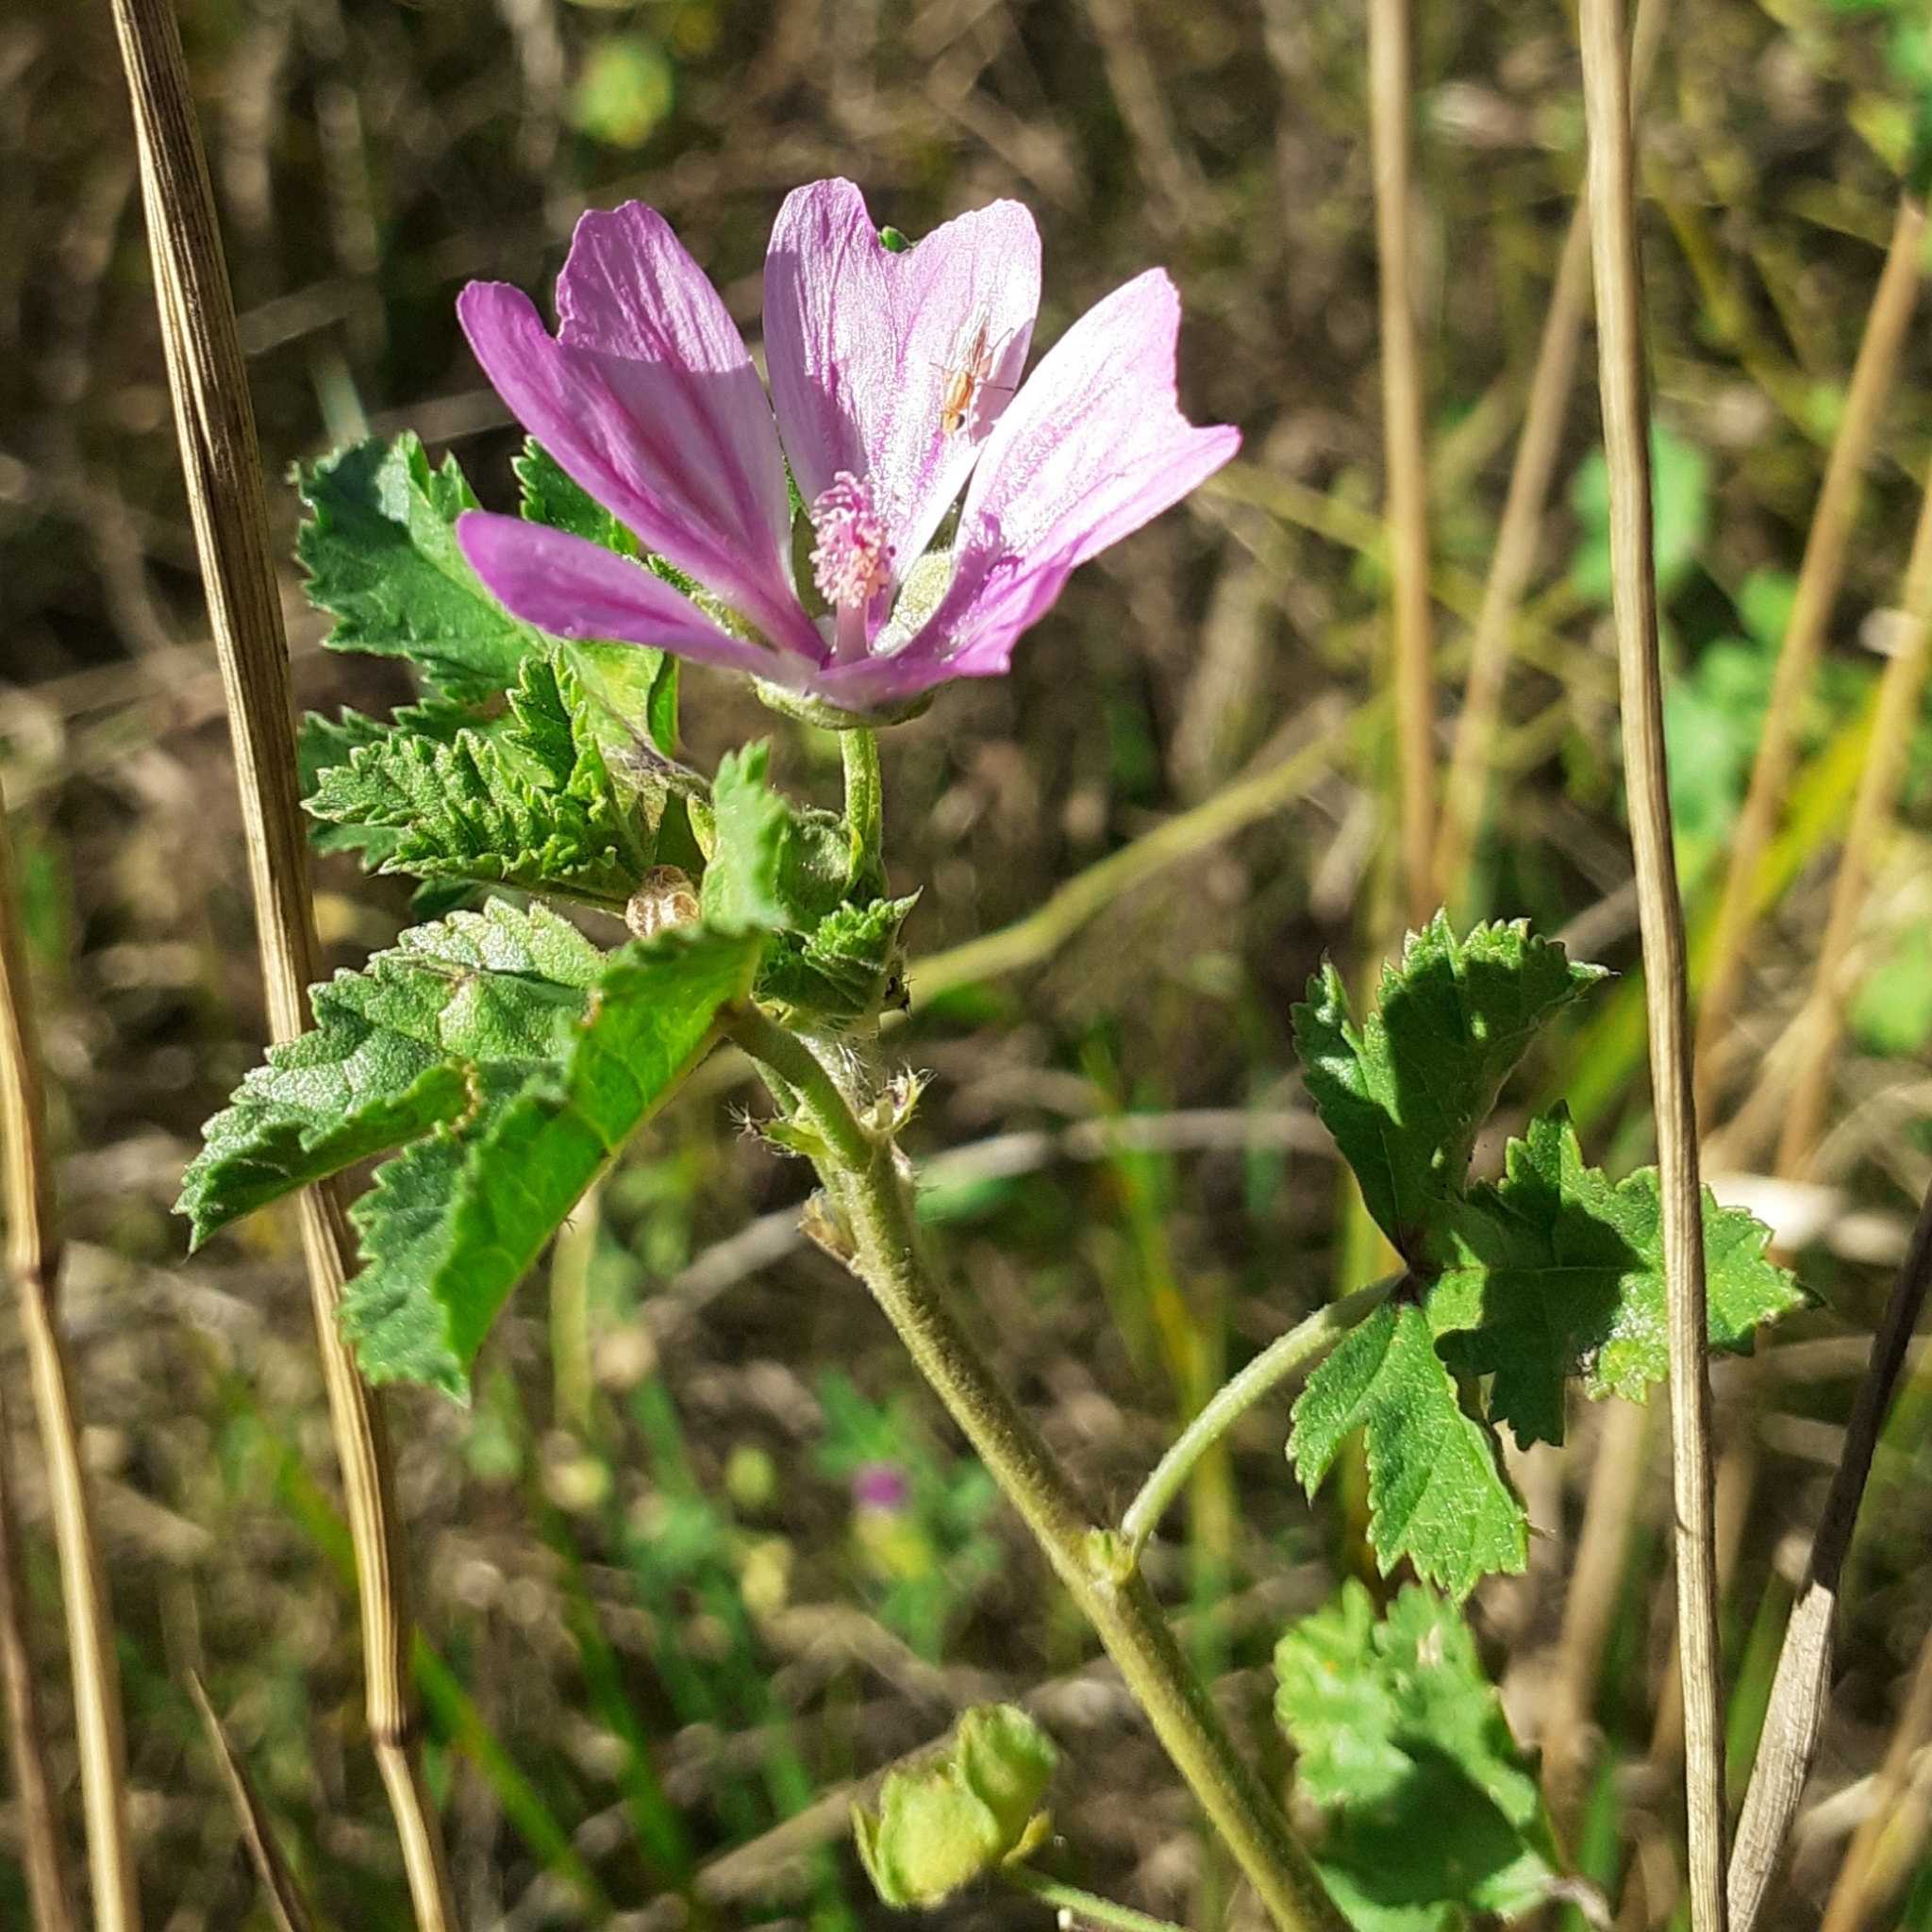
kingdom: Plantae
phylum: Tracheophyta
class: Magnoliopsida
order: Malvales
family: Malvaceae
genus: Malva
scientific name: Malva sylvestris
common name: Common mallow
